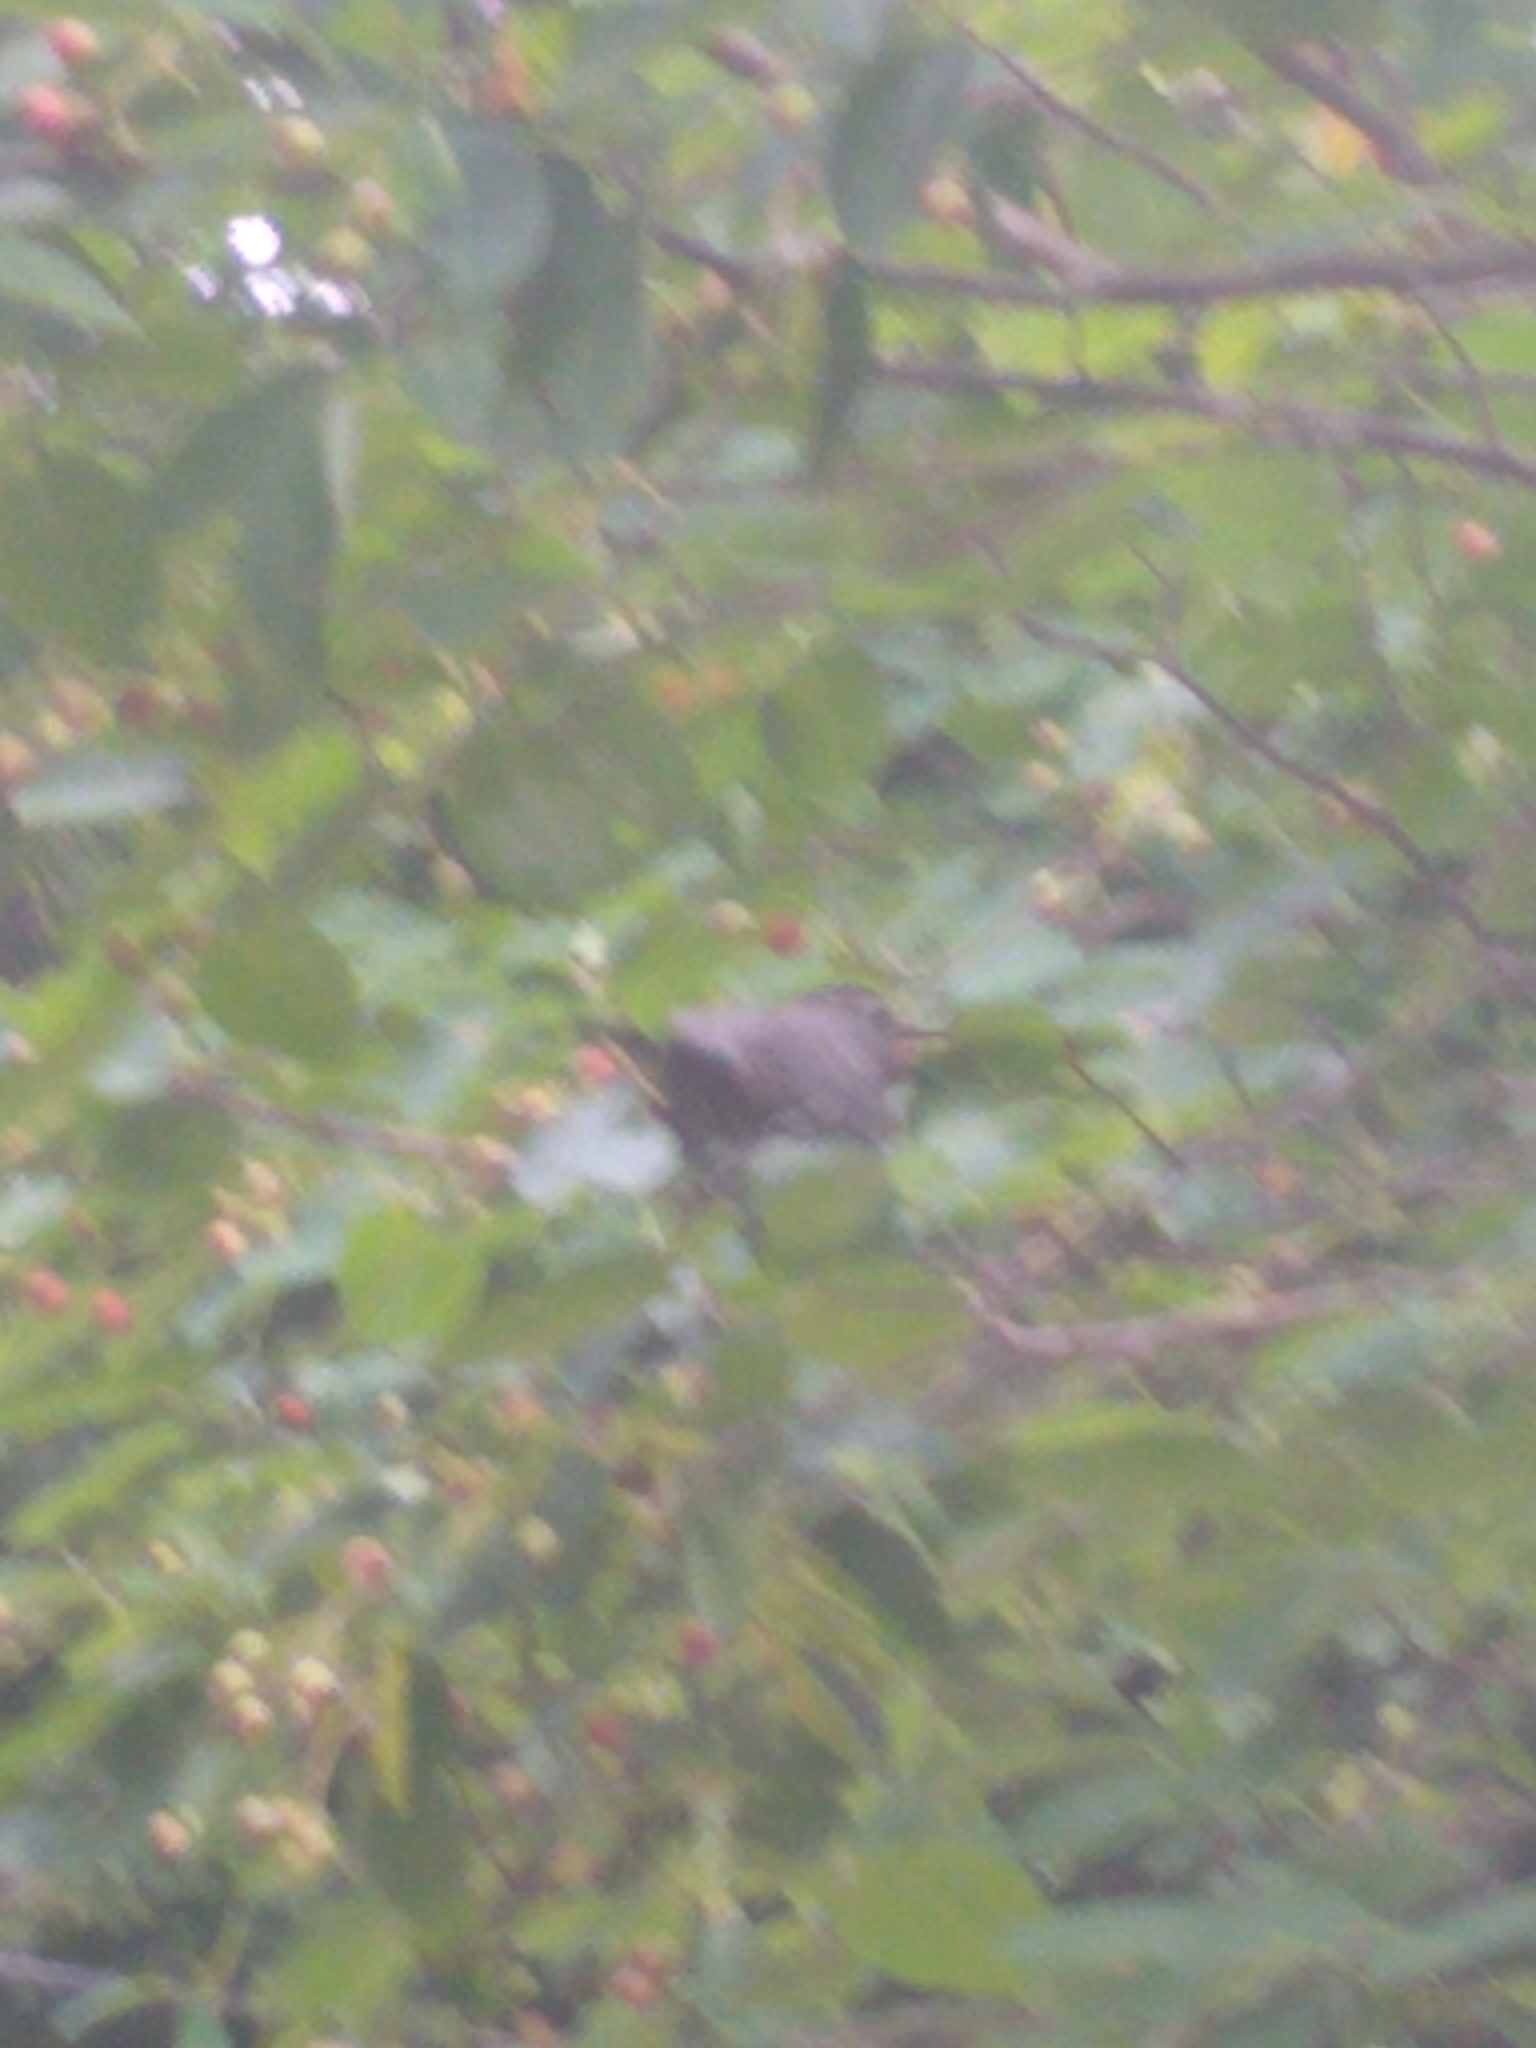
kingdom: Animalia
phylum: Chordata
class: Aves
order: Passeriformes
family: Mimidae
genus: Dumetella
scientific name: Dumetella carolinensis
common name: Gray catbird
